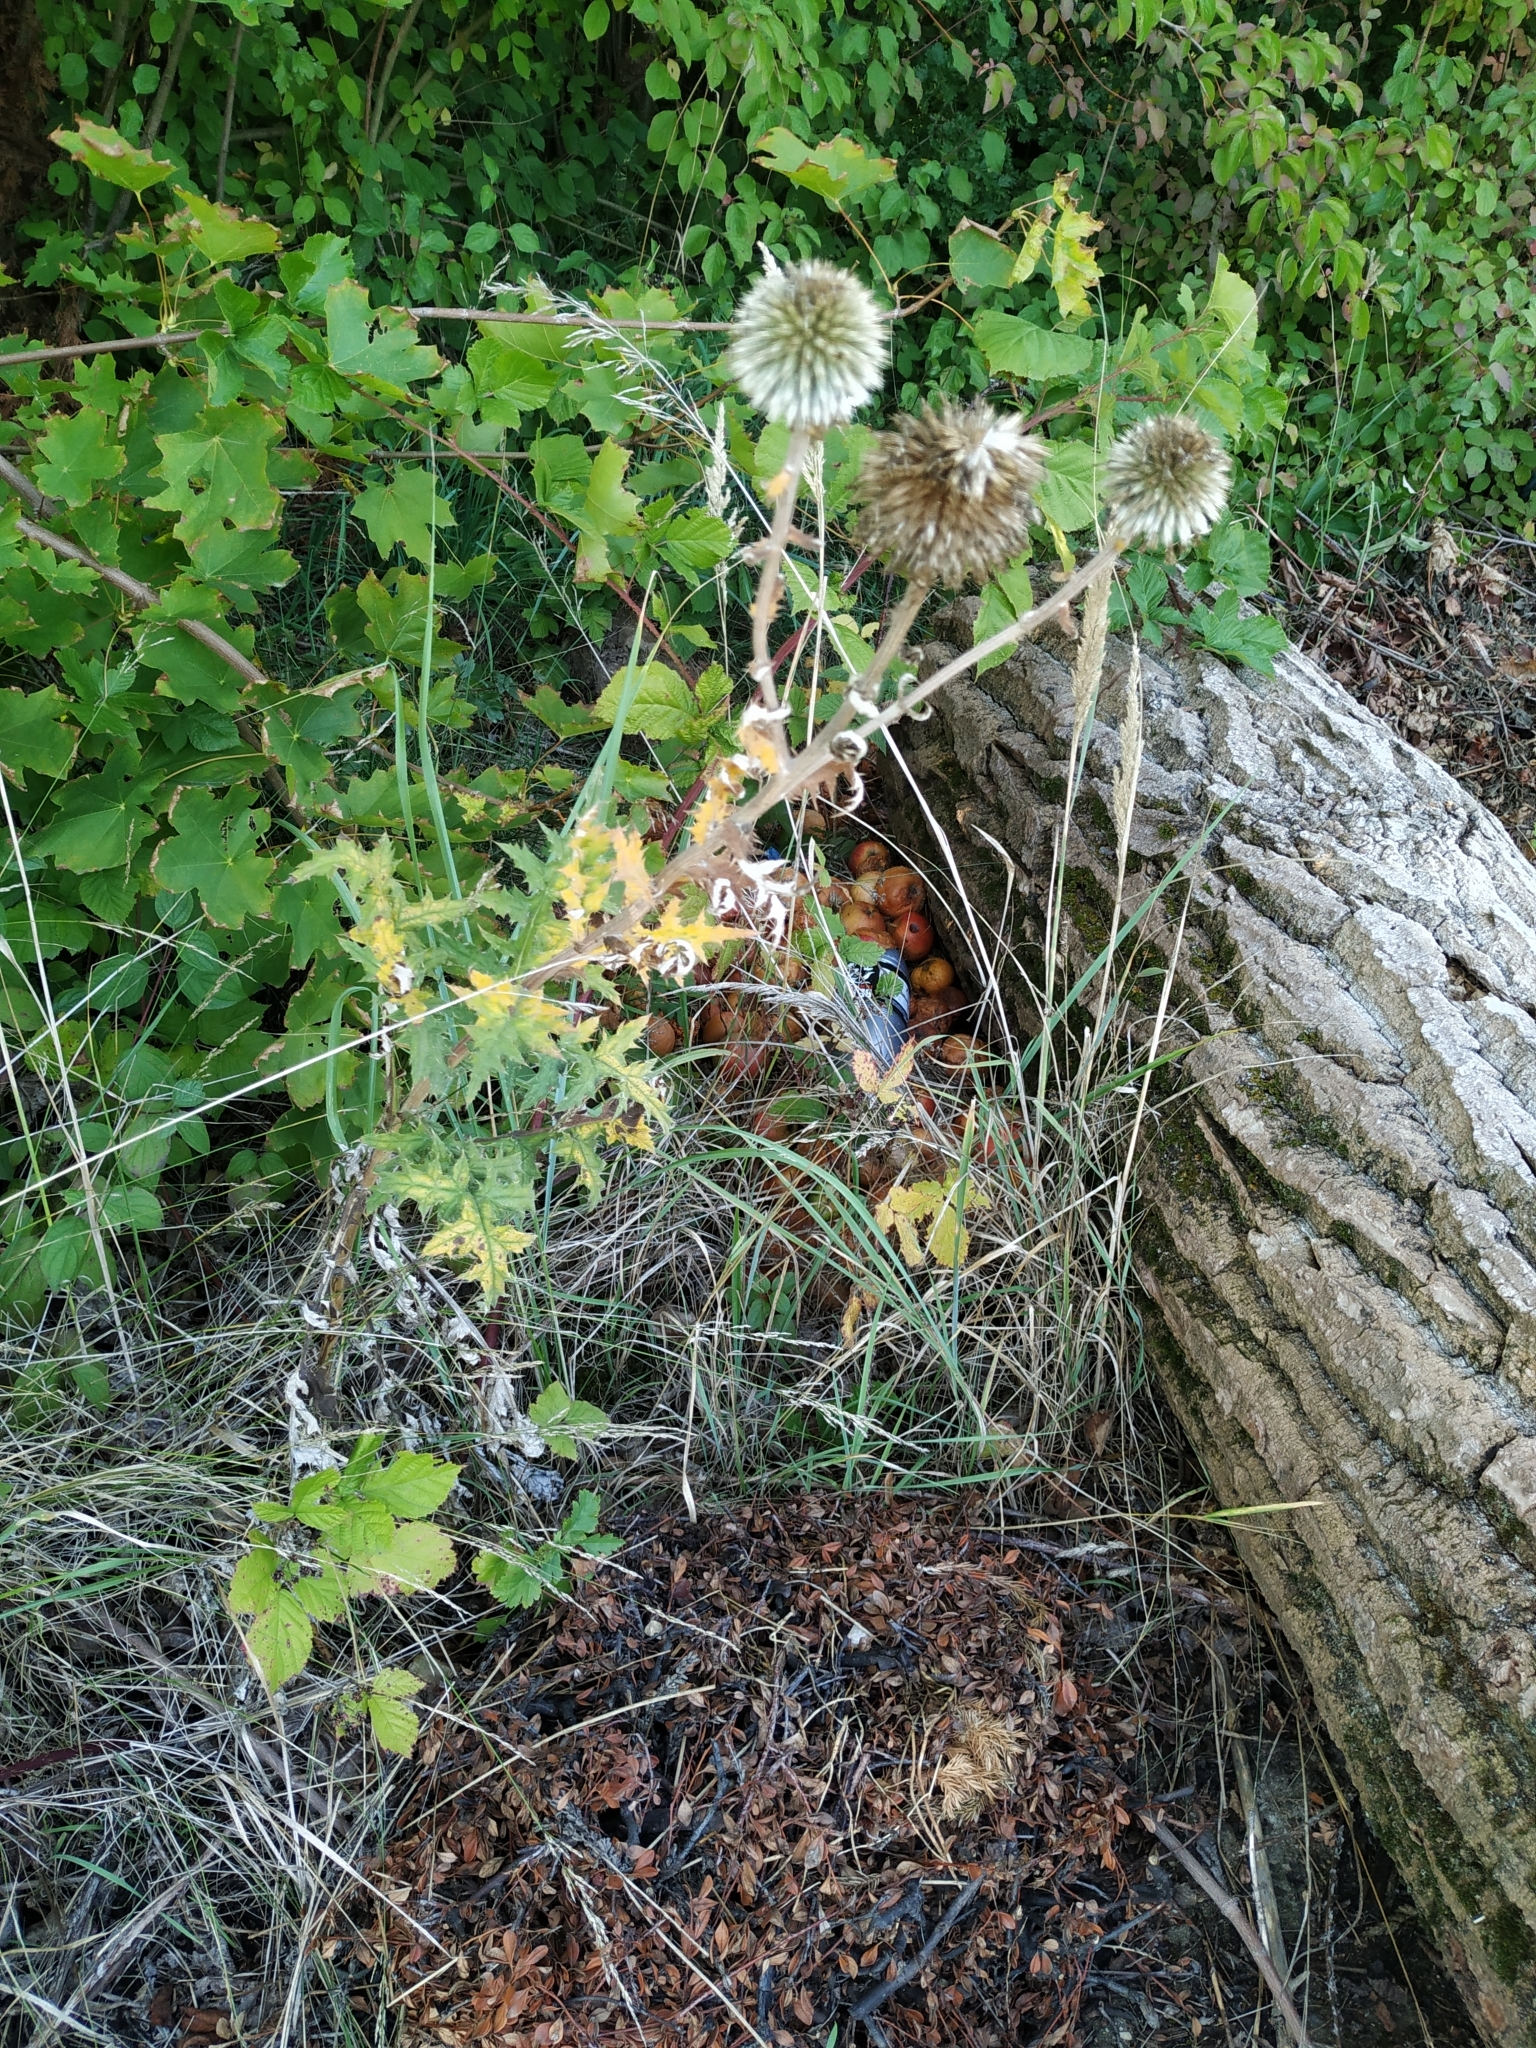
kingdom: Plantae
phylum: Tracheophyta
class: Magnoliopsida
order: Asterales
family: Asteraceae
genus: Echinops
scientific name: Echinops sphaerocephalus
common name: Glandular globe-thistle
